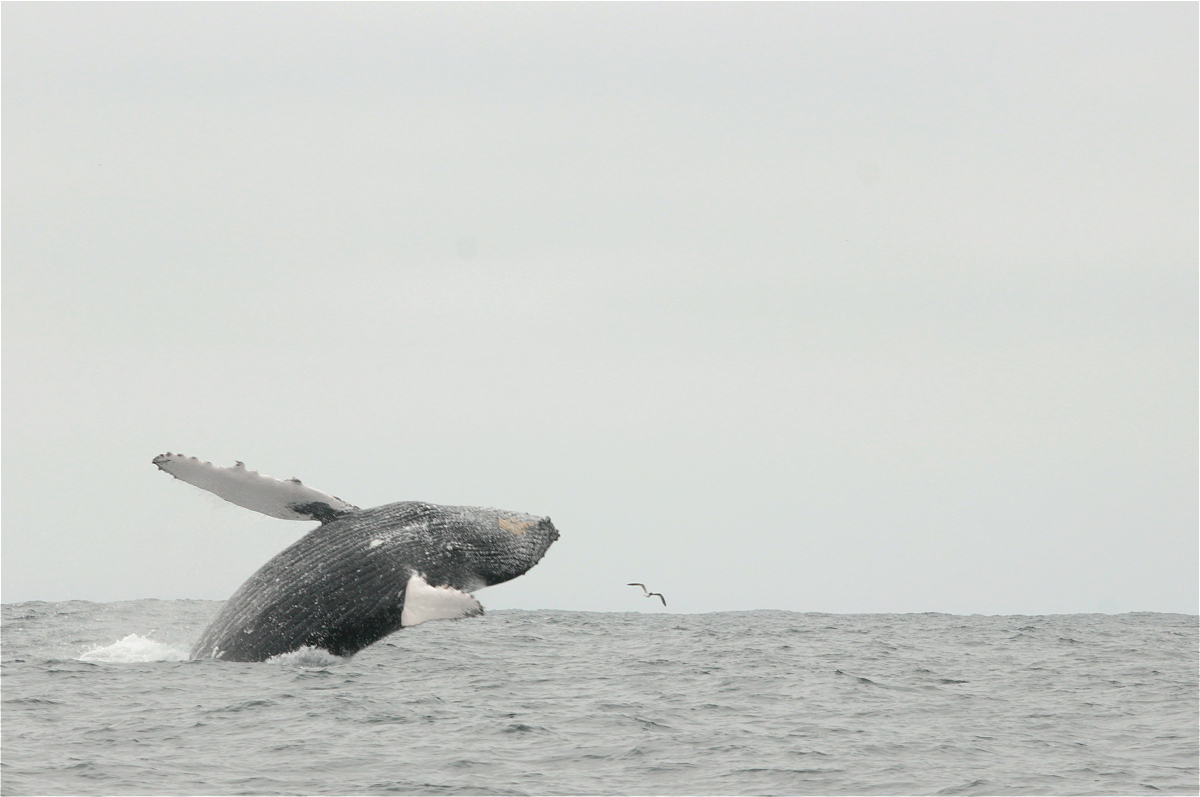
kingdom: Animalia
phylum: Chordata
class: Mammalia
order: Cetacea
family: Balaenopteridae
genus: Megaptera
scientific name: Megaptera novaeangliae
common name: Humpback whale
